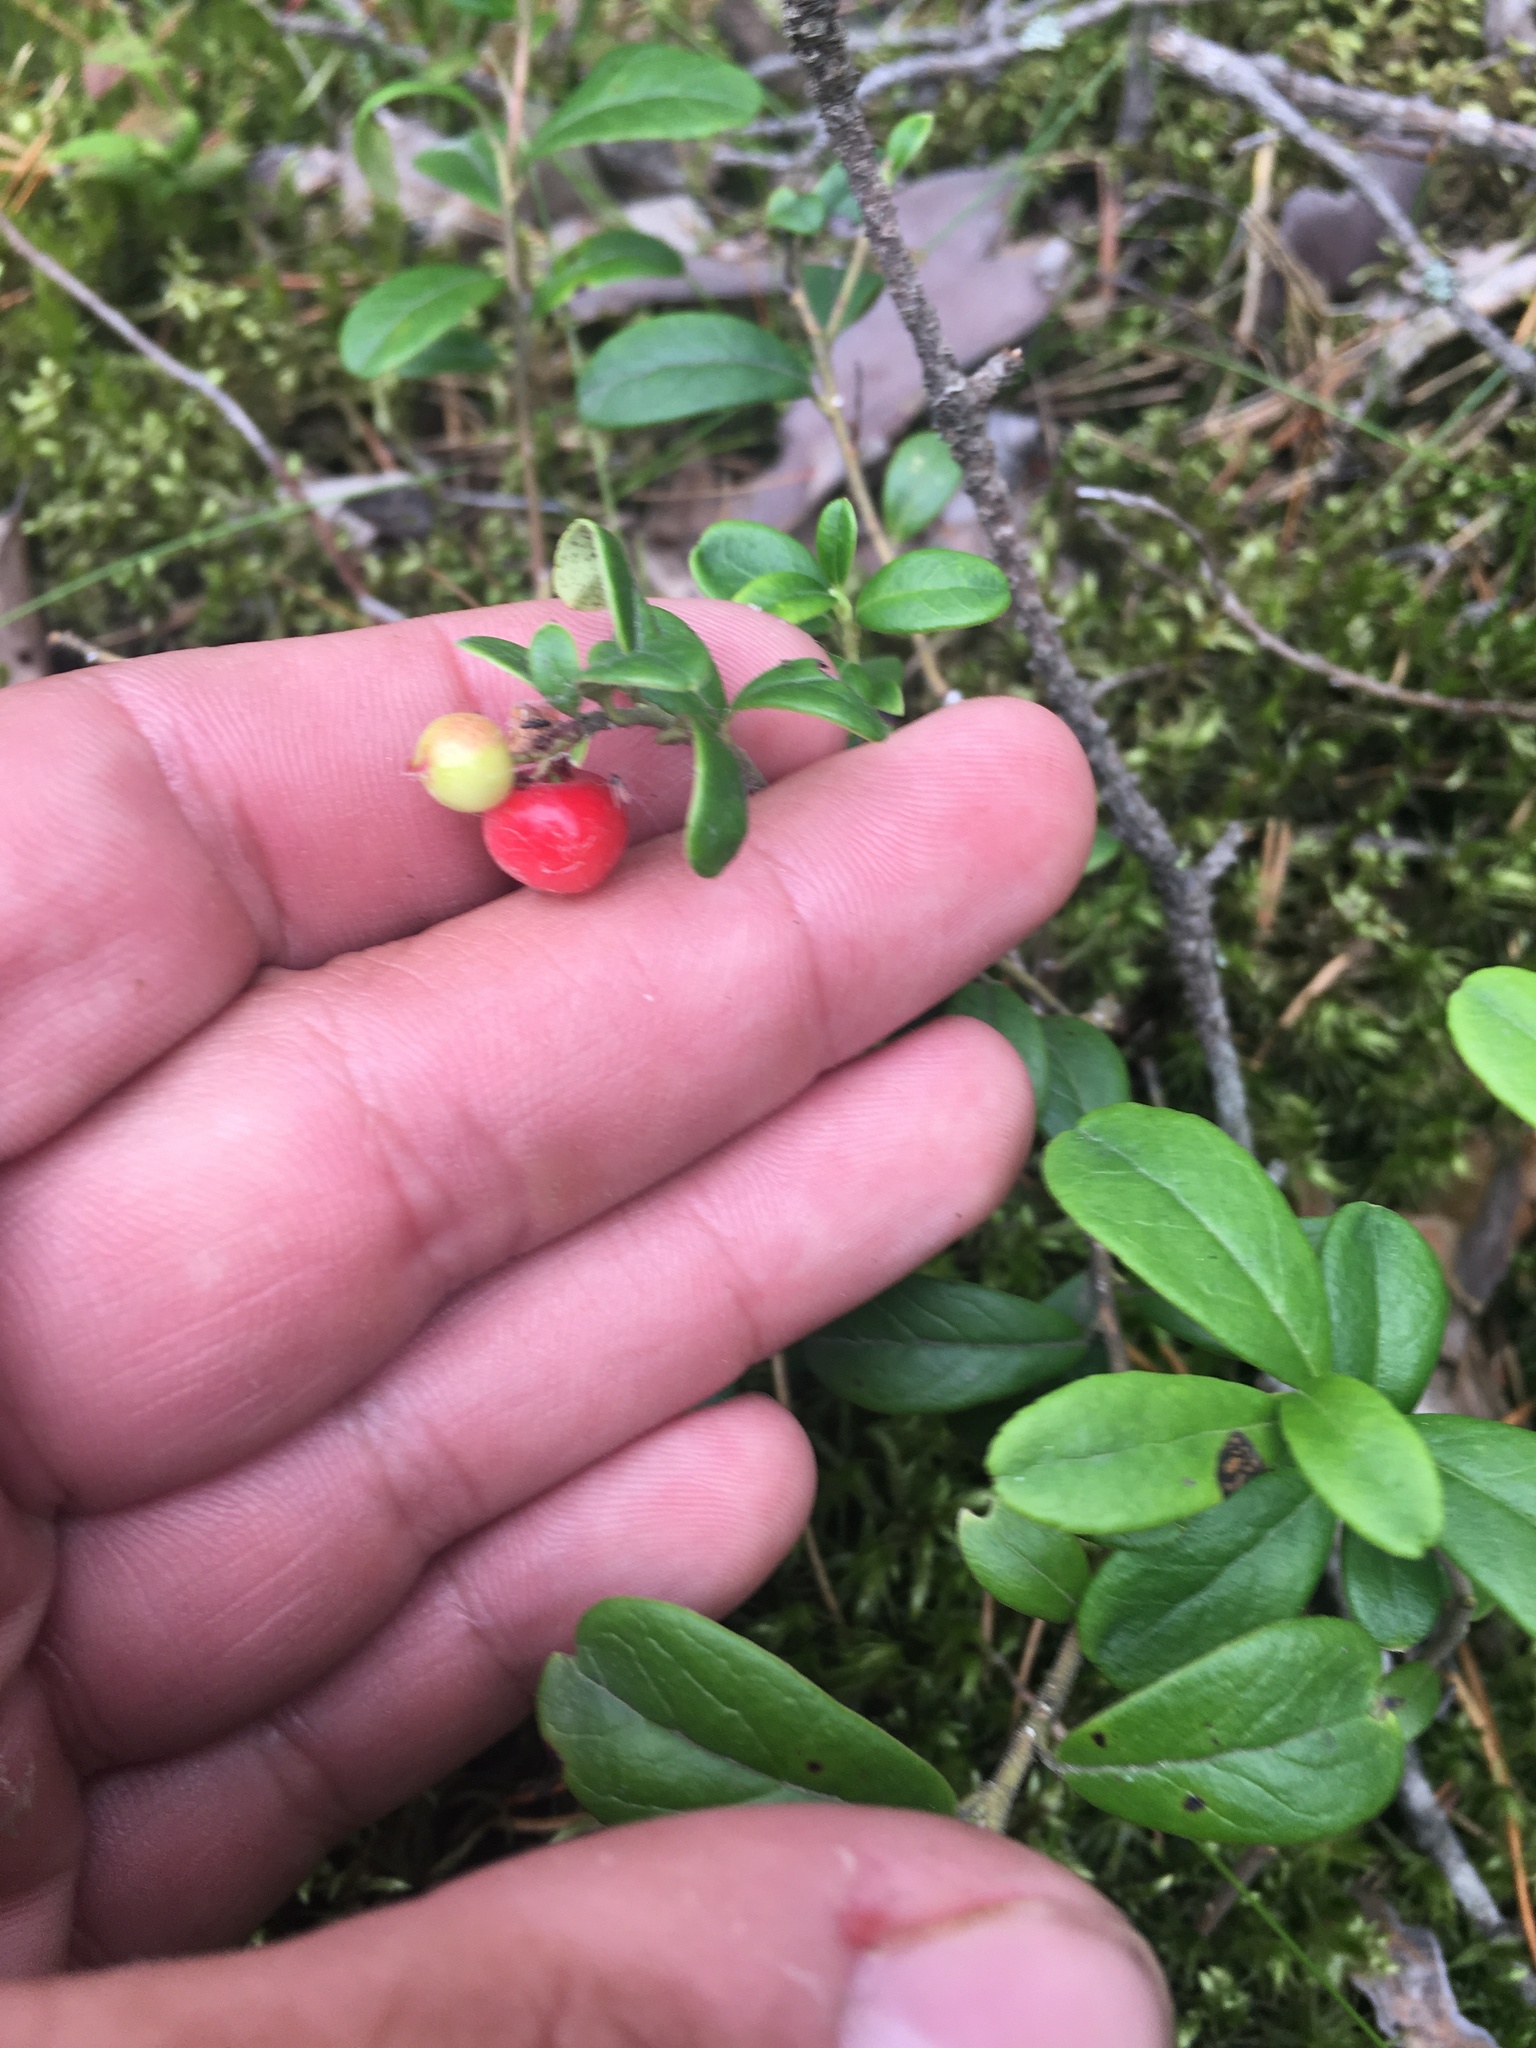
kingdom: Plantae
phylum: Tracheophyta
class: Magnoliopsida
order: Ericales
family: Ericaceae
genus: Vaccinium
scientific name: Vaccinium vitis-idaea
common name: Cowberry
